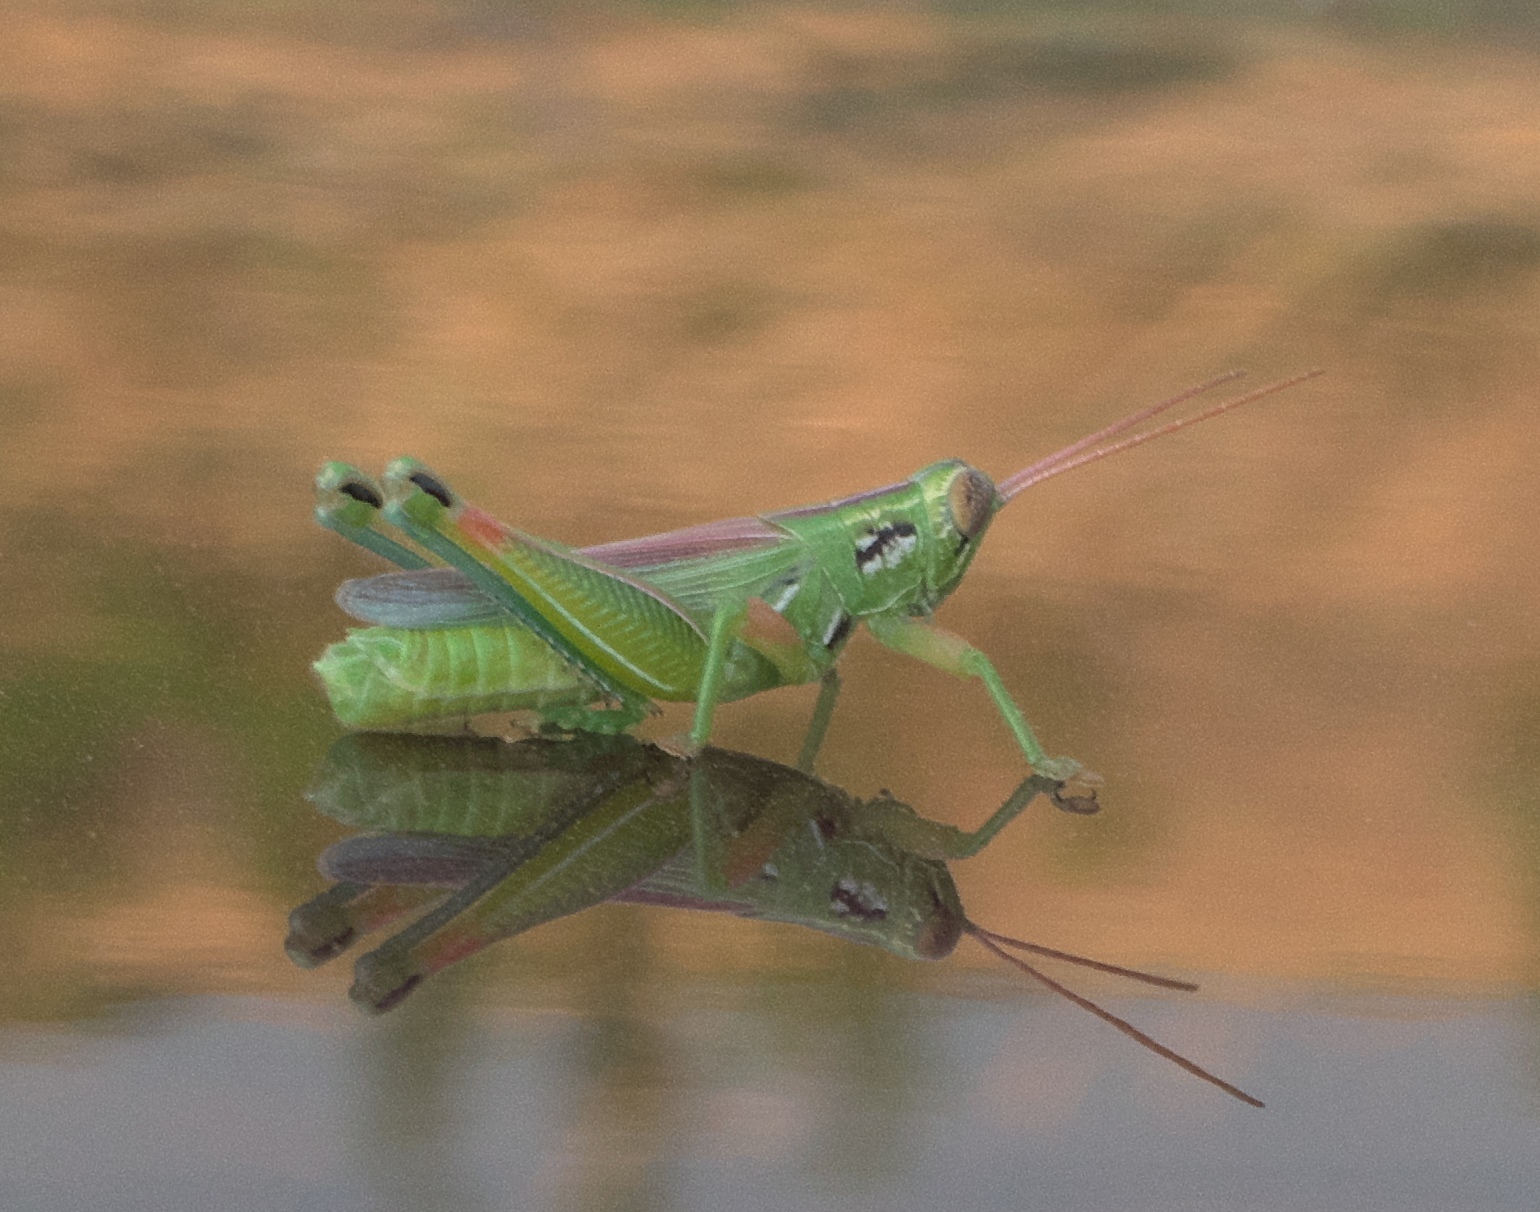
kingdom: Animalia
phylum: Arthropoda
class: Insecta
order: Orthoptera
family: Acrididae
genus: Hesperotettix
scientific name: Hesperotettix viridis
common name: Meadow purple-striped grasshopper
